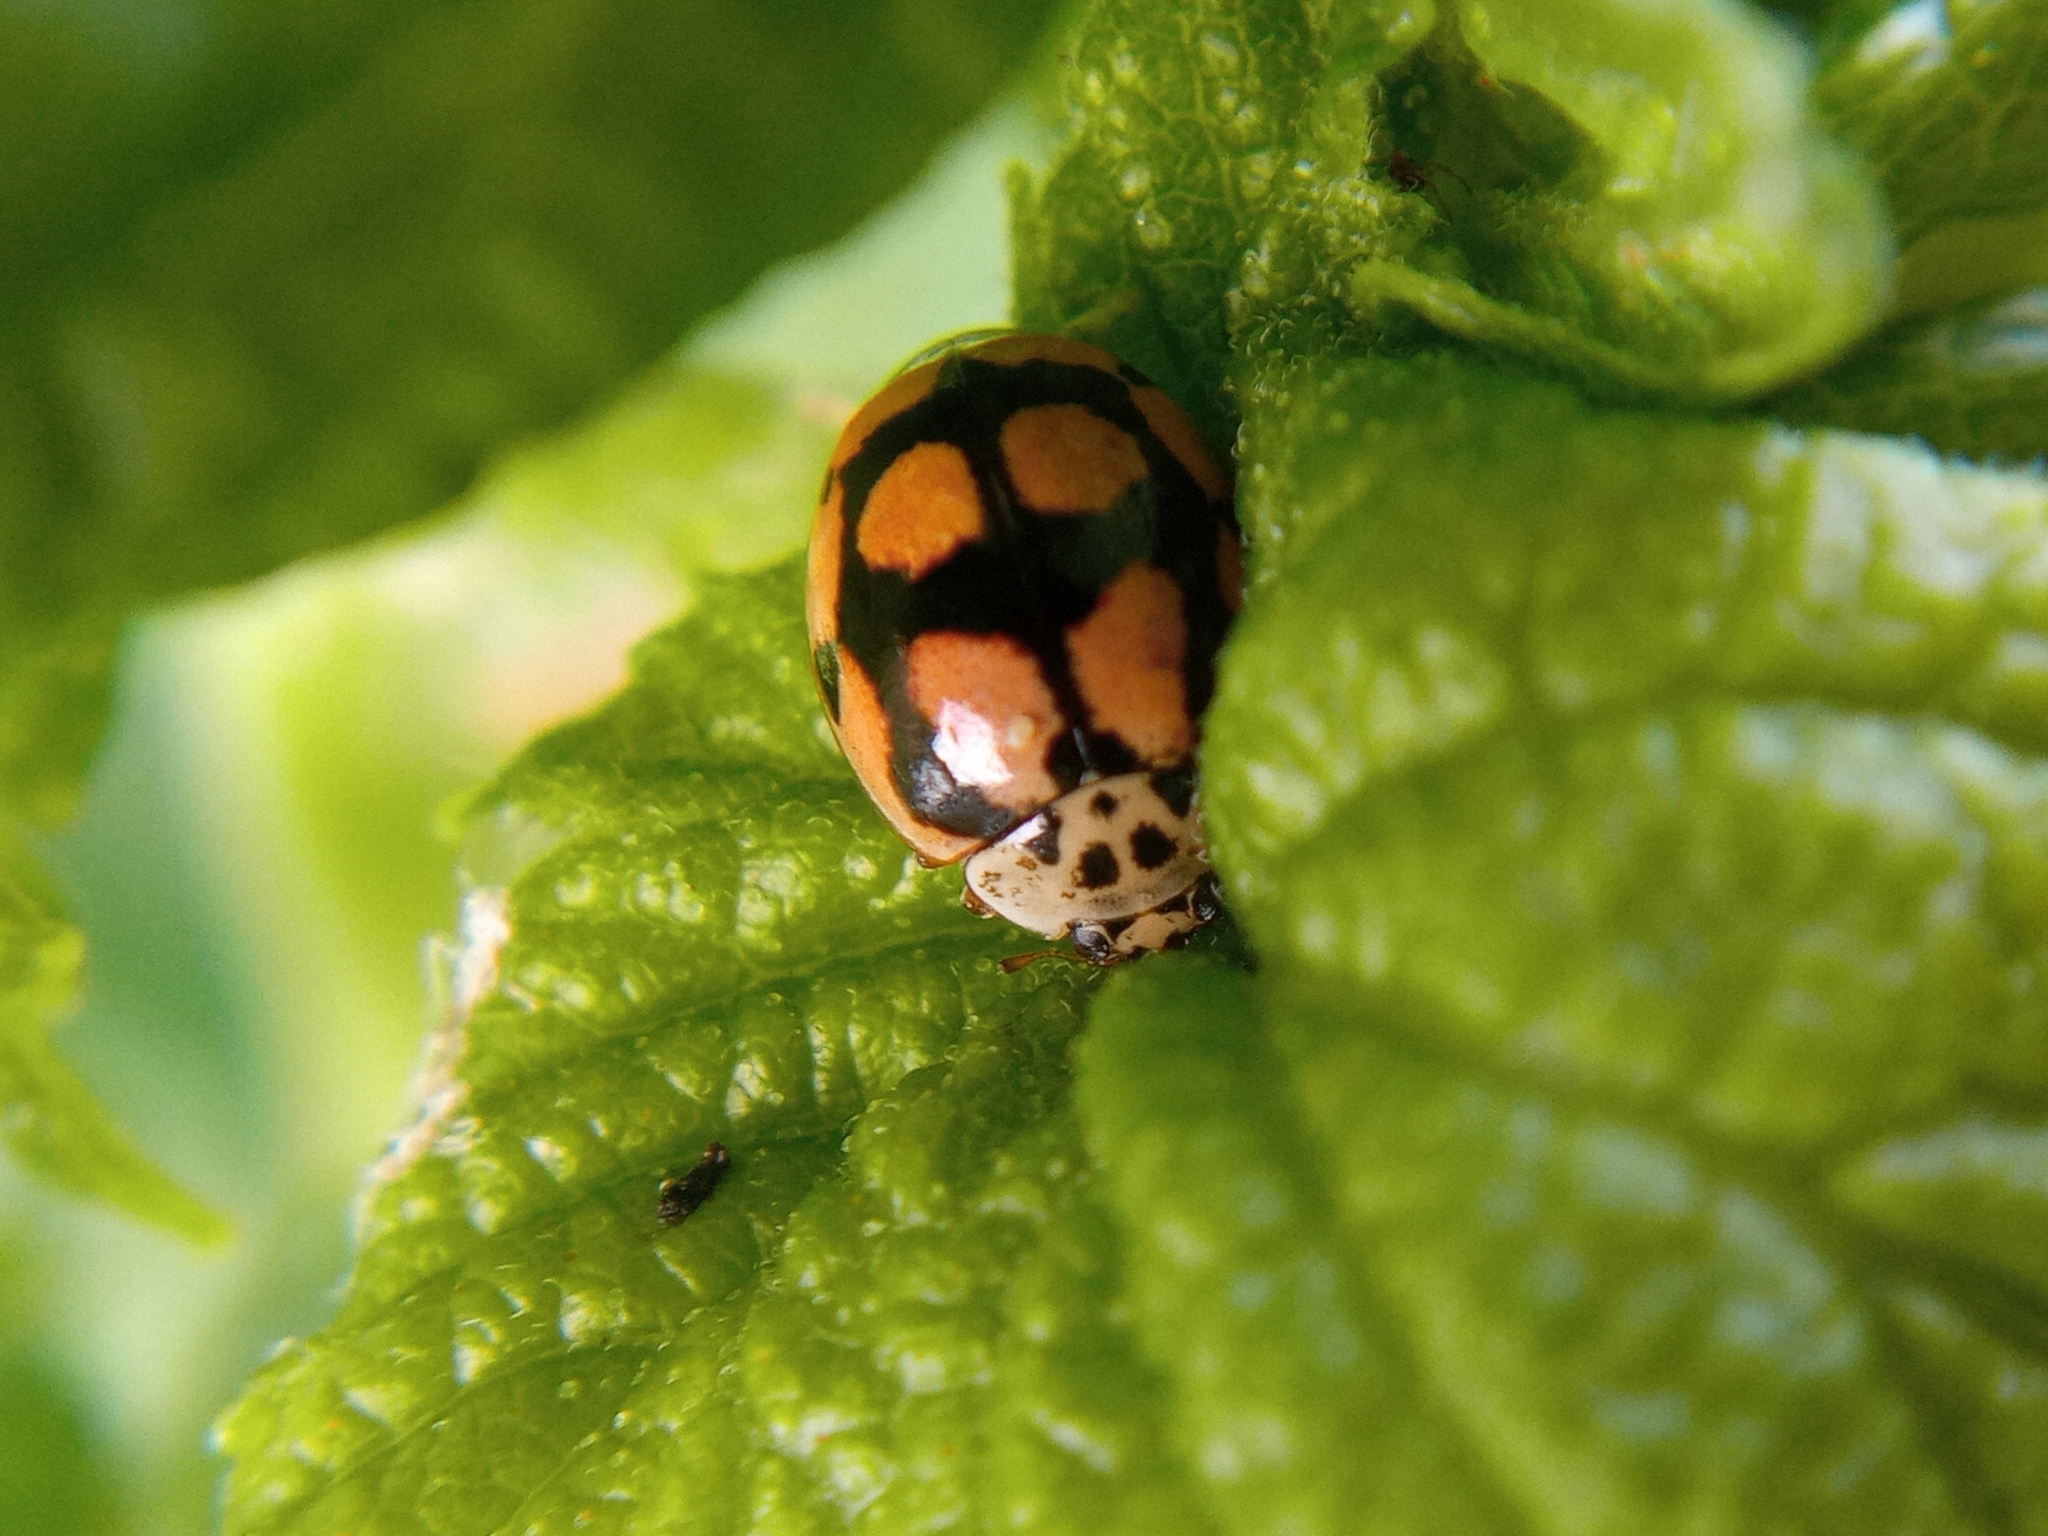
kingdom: Animalia
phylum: Arthropoda
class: Insecta
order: Coleoptera
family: Coccinellidae
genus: Adalia
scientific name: Adalia decempunctata
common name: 10-spot ladybird
